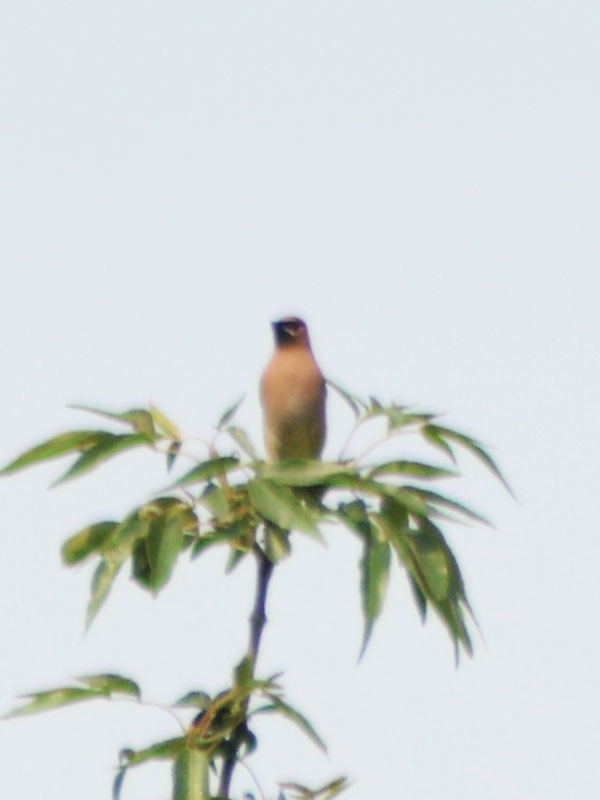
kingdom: Animalia
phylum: Chordata
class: Aves
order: Passeriformes
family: Bombycillidae
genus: Bombycilla
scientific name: Bombycilla cedrorum
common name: Cedar waxwing
